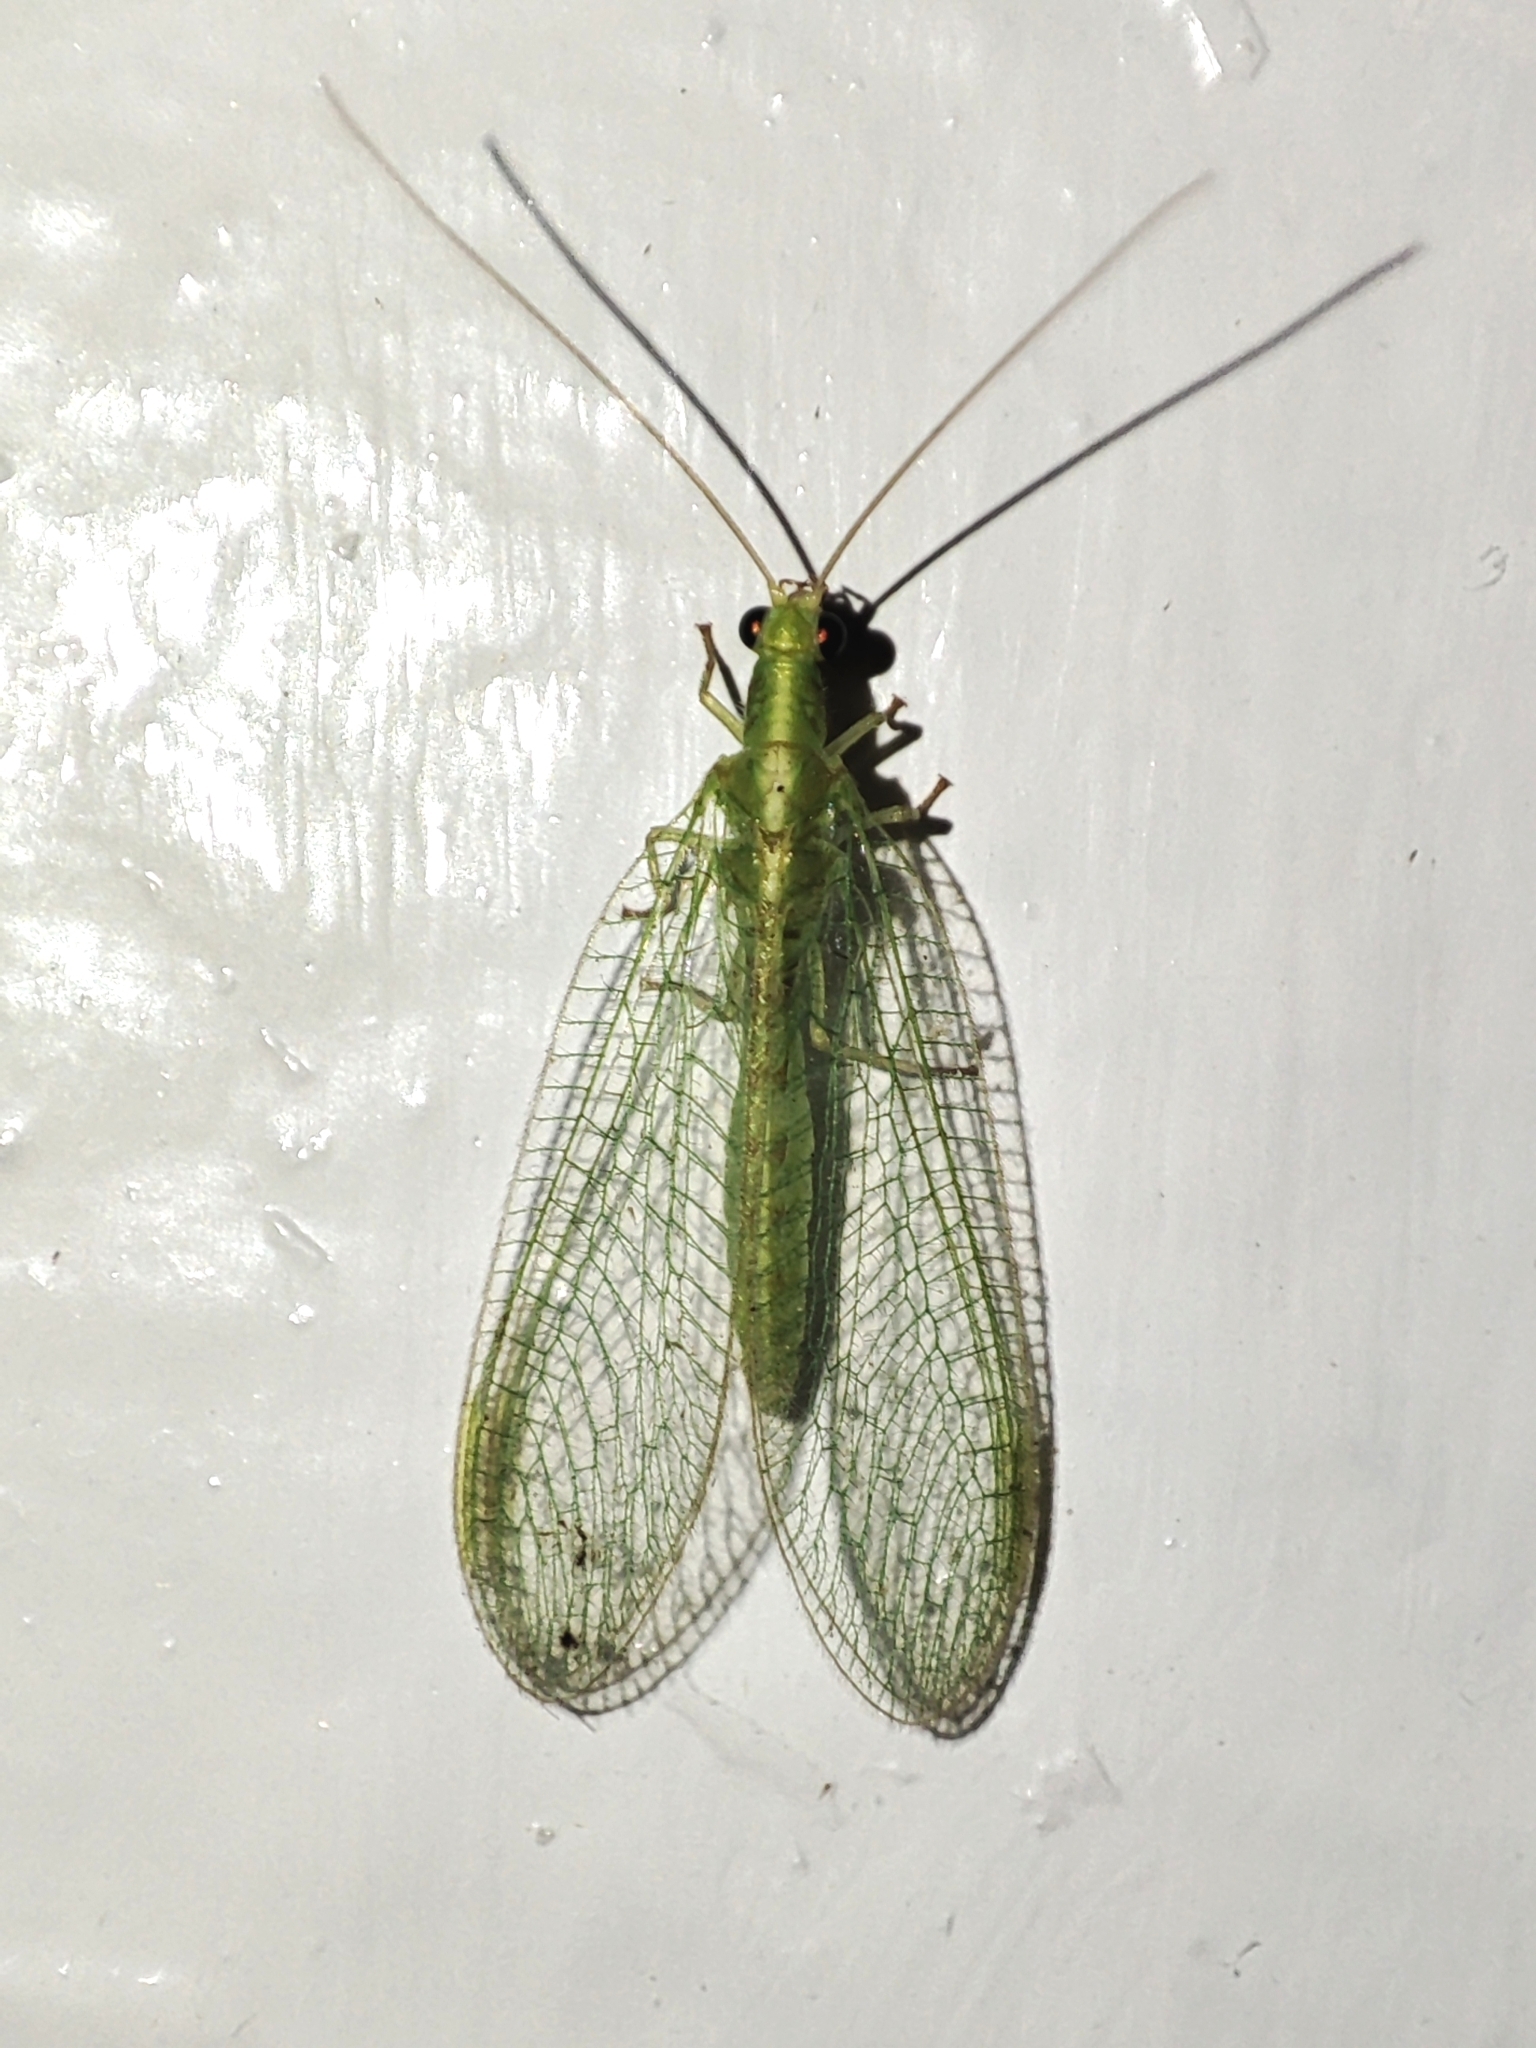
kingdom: Animalia
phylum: Arthropoda
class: Insecta
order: Neuroptera
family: Chrysopidae
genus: Chrysoperla
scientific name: Chrysoperla
